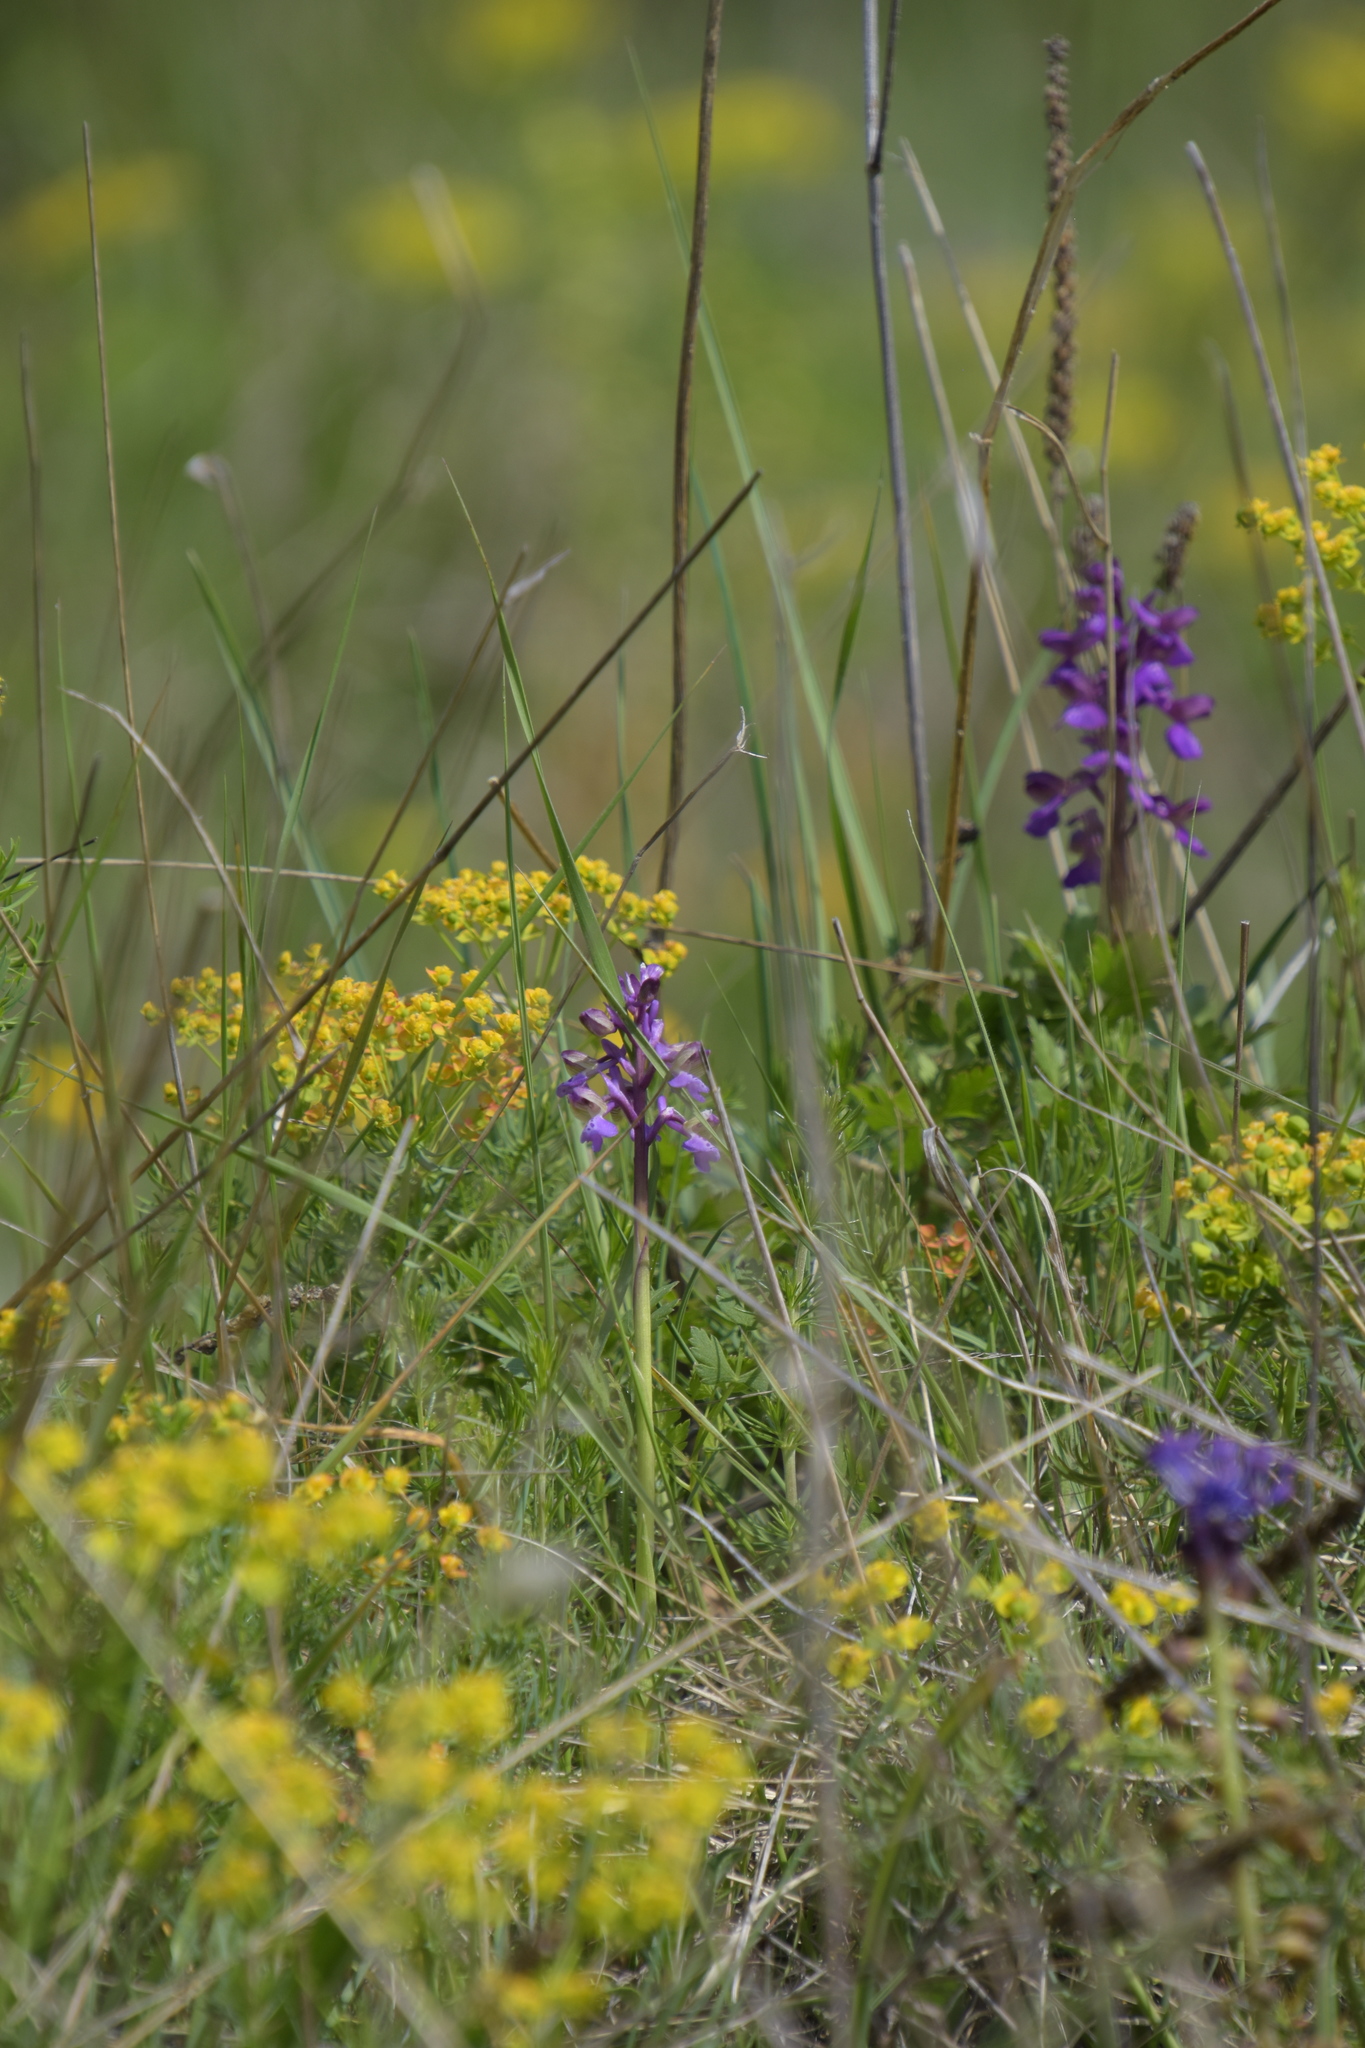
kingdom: Plantae
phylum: Tracheophyta
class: Liliopsida
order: Asparagales
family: Orchidaceae
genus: Anacamptis
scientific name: Anacamptis morio
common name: Green-winged orchid
